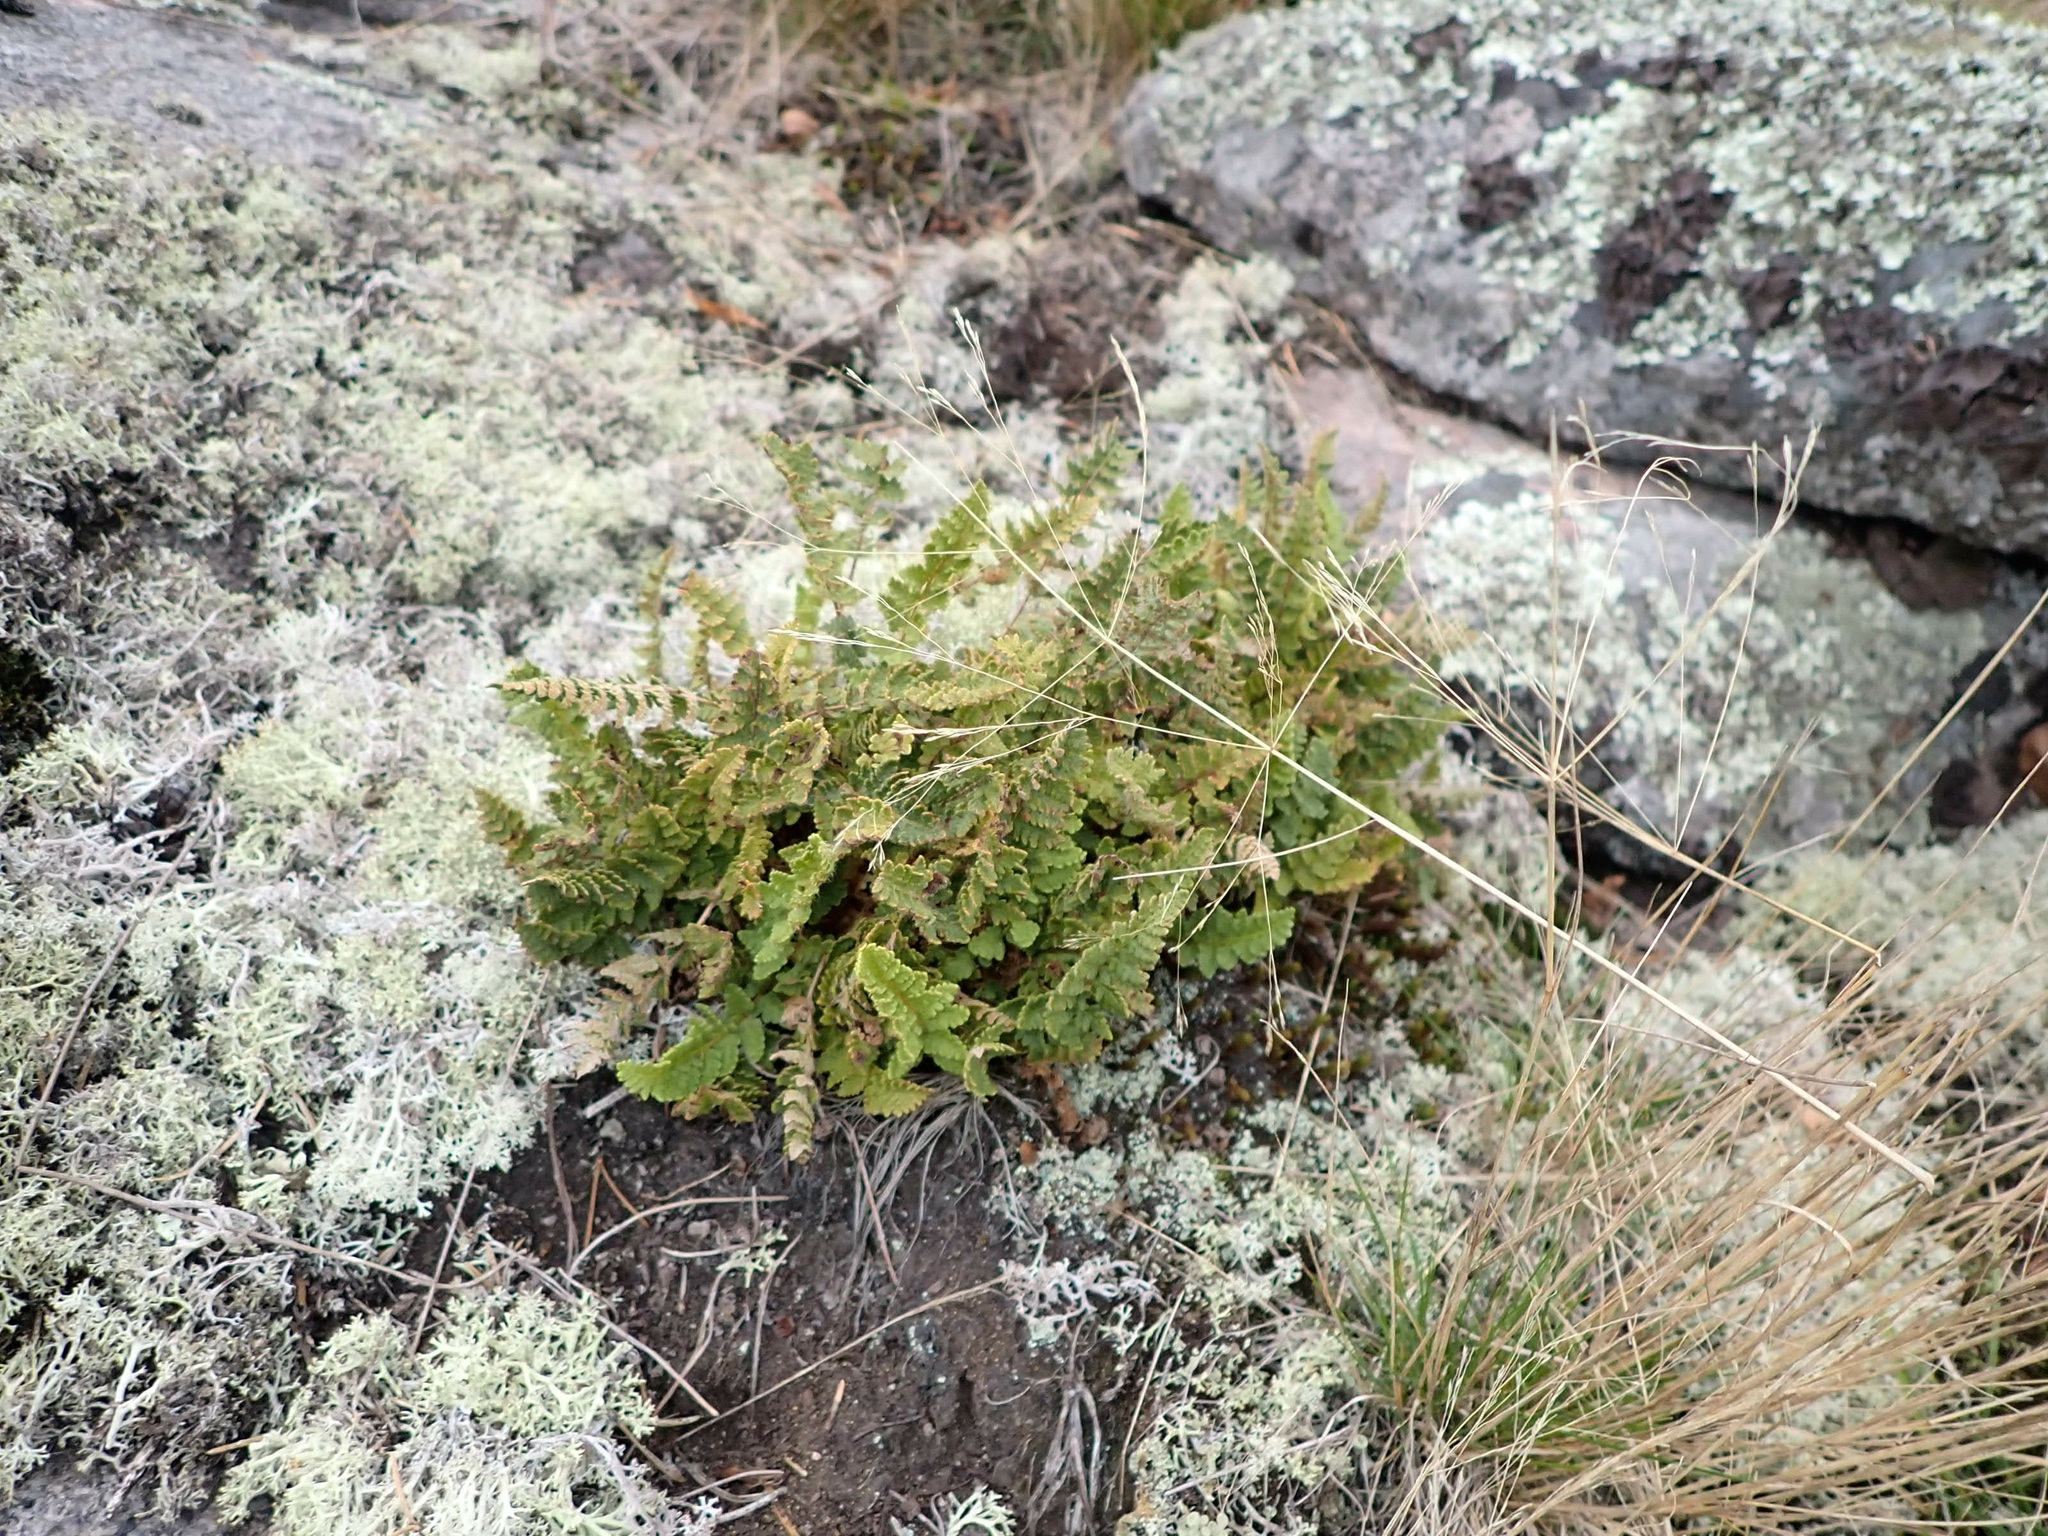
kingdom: Plantae
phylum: Tracheophyta
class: Polypodiopsida
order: Polypodiales
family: Woodsiaceae
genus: Woodsia
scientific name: Woodsia ilvensis
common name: Fragrant woodsia
